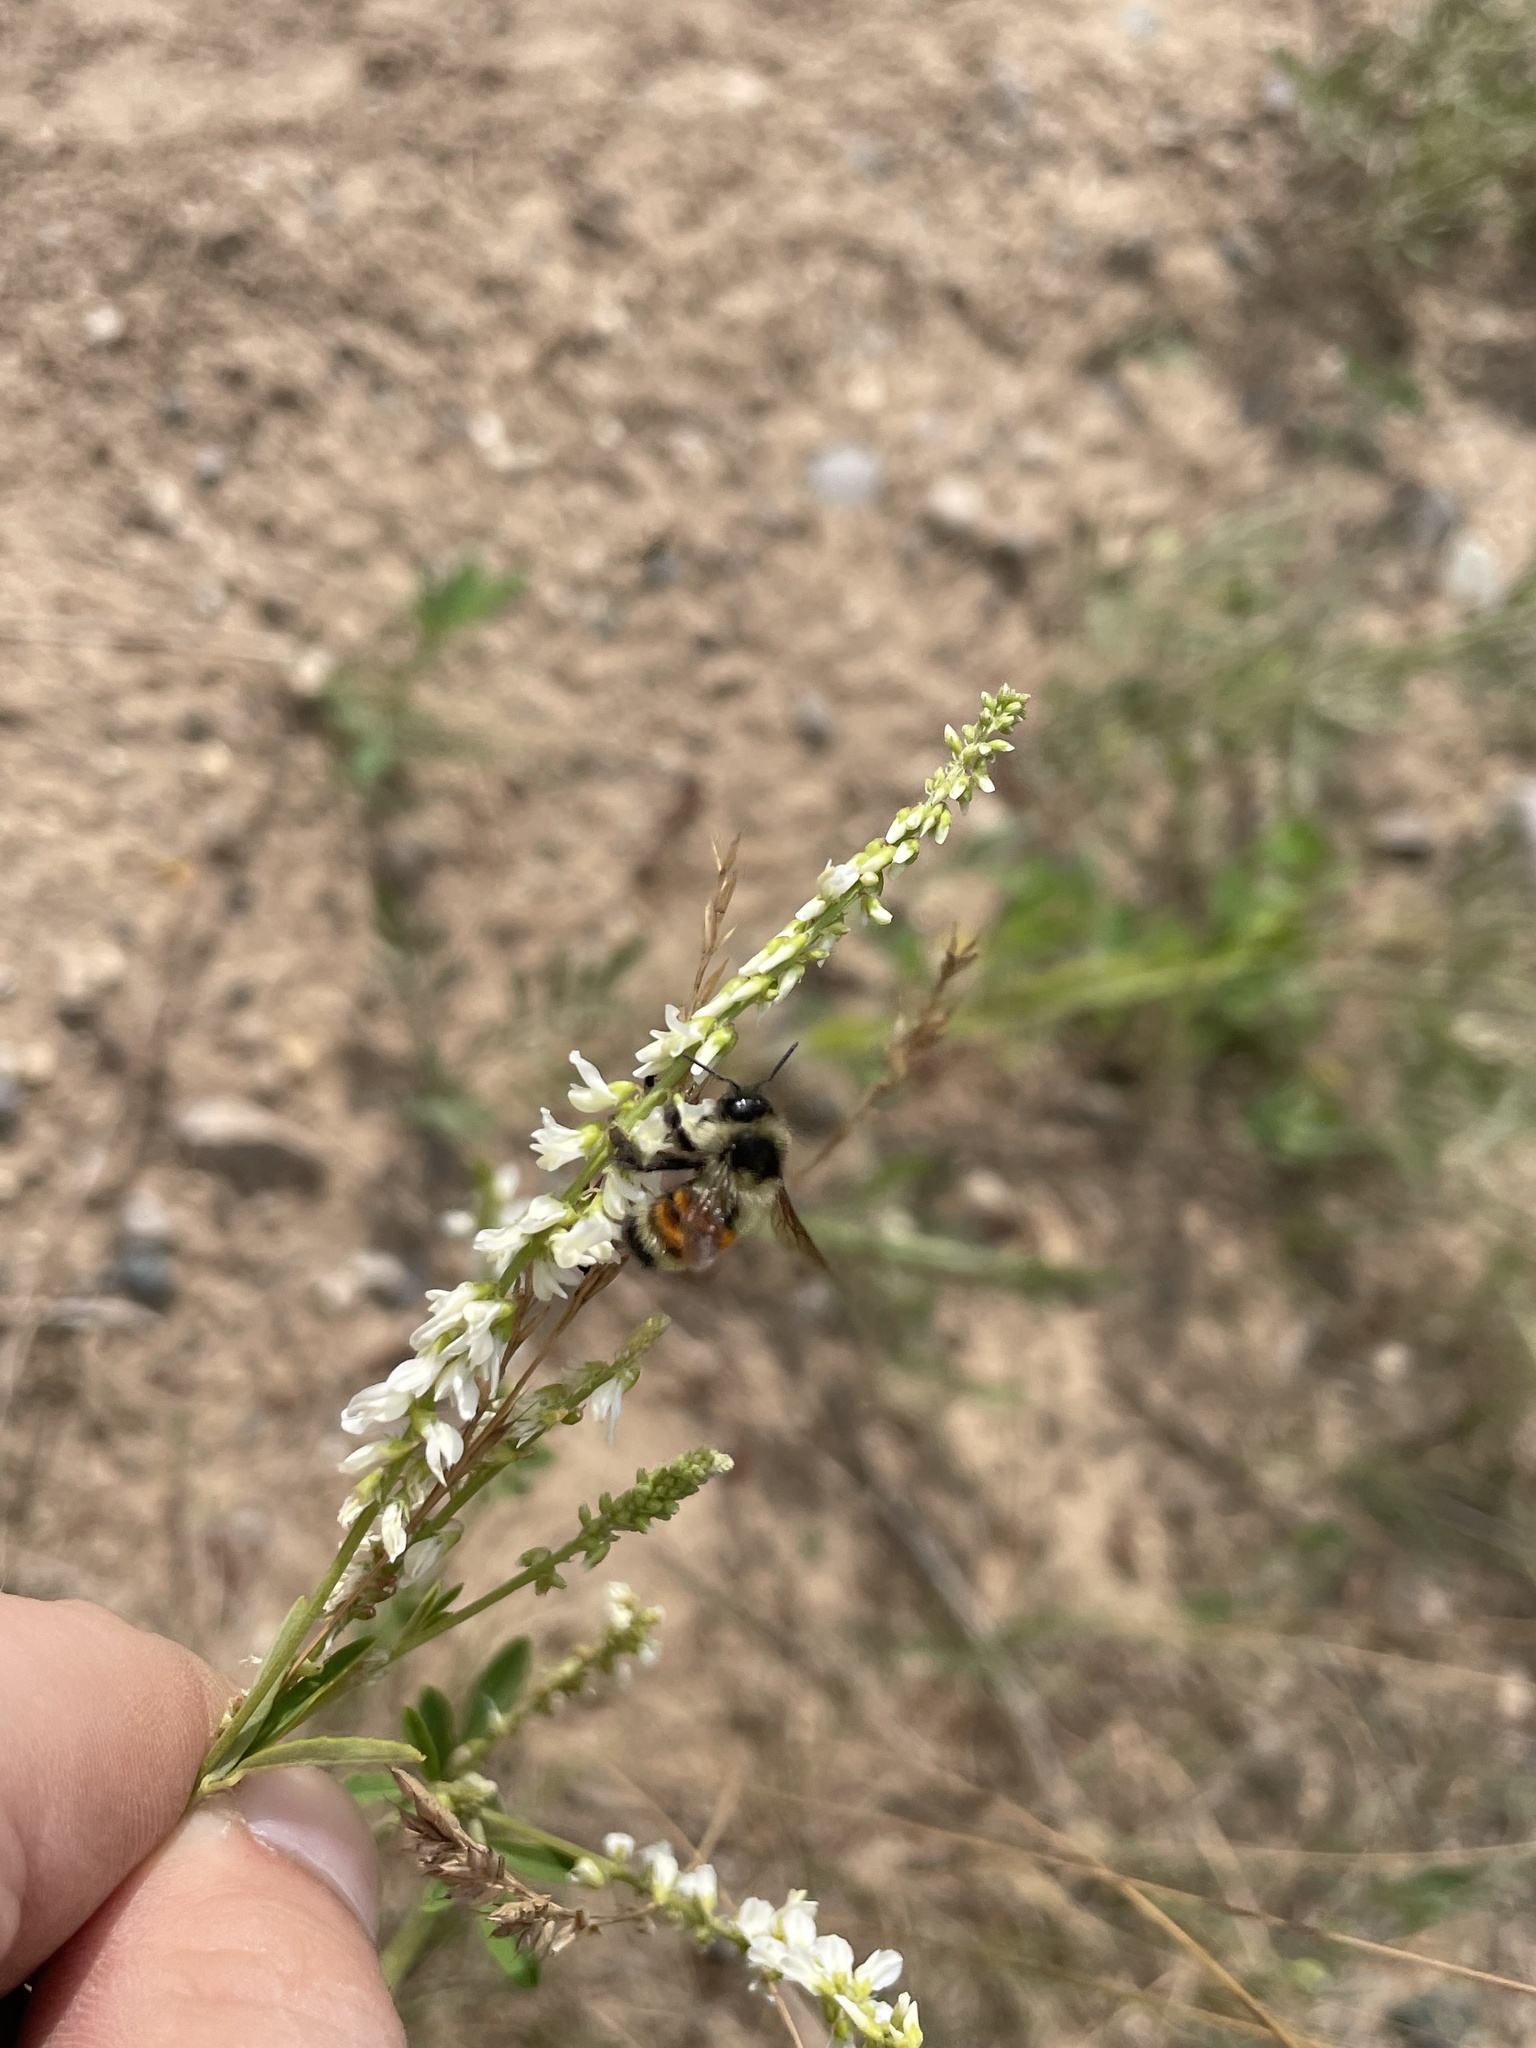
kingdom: Animalia
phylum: Arthropoda
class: Insecta
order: Hymenoptera
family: Apidae
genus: Bombus
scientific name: Bombus ternarius
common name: Tri-colored bumble bee
